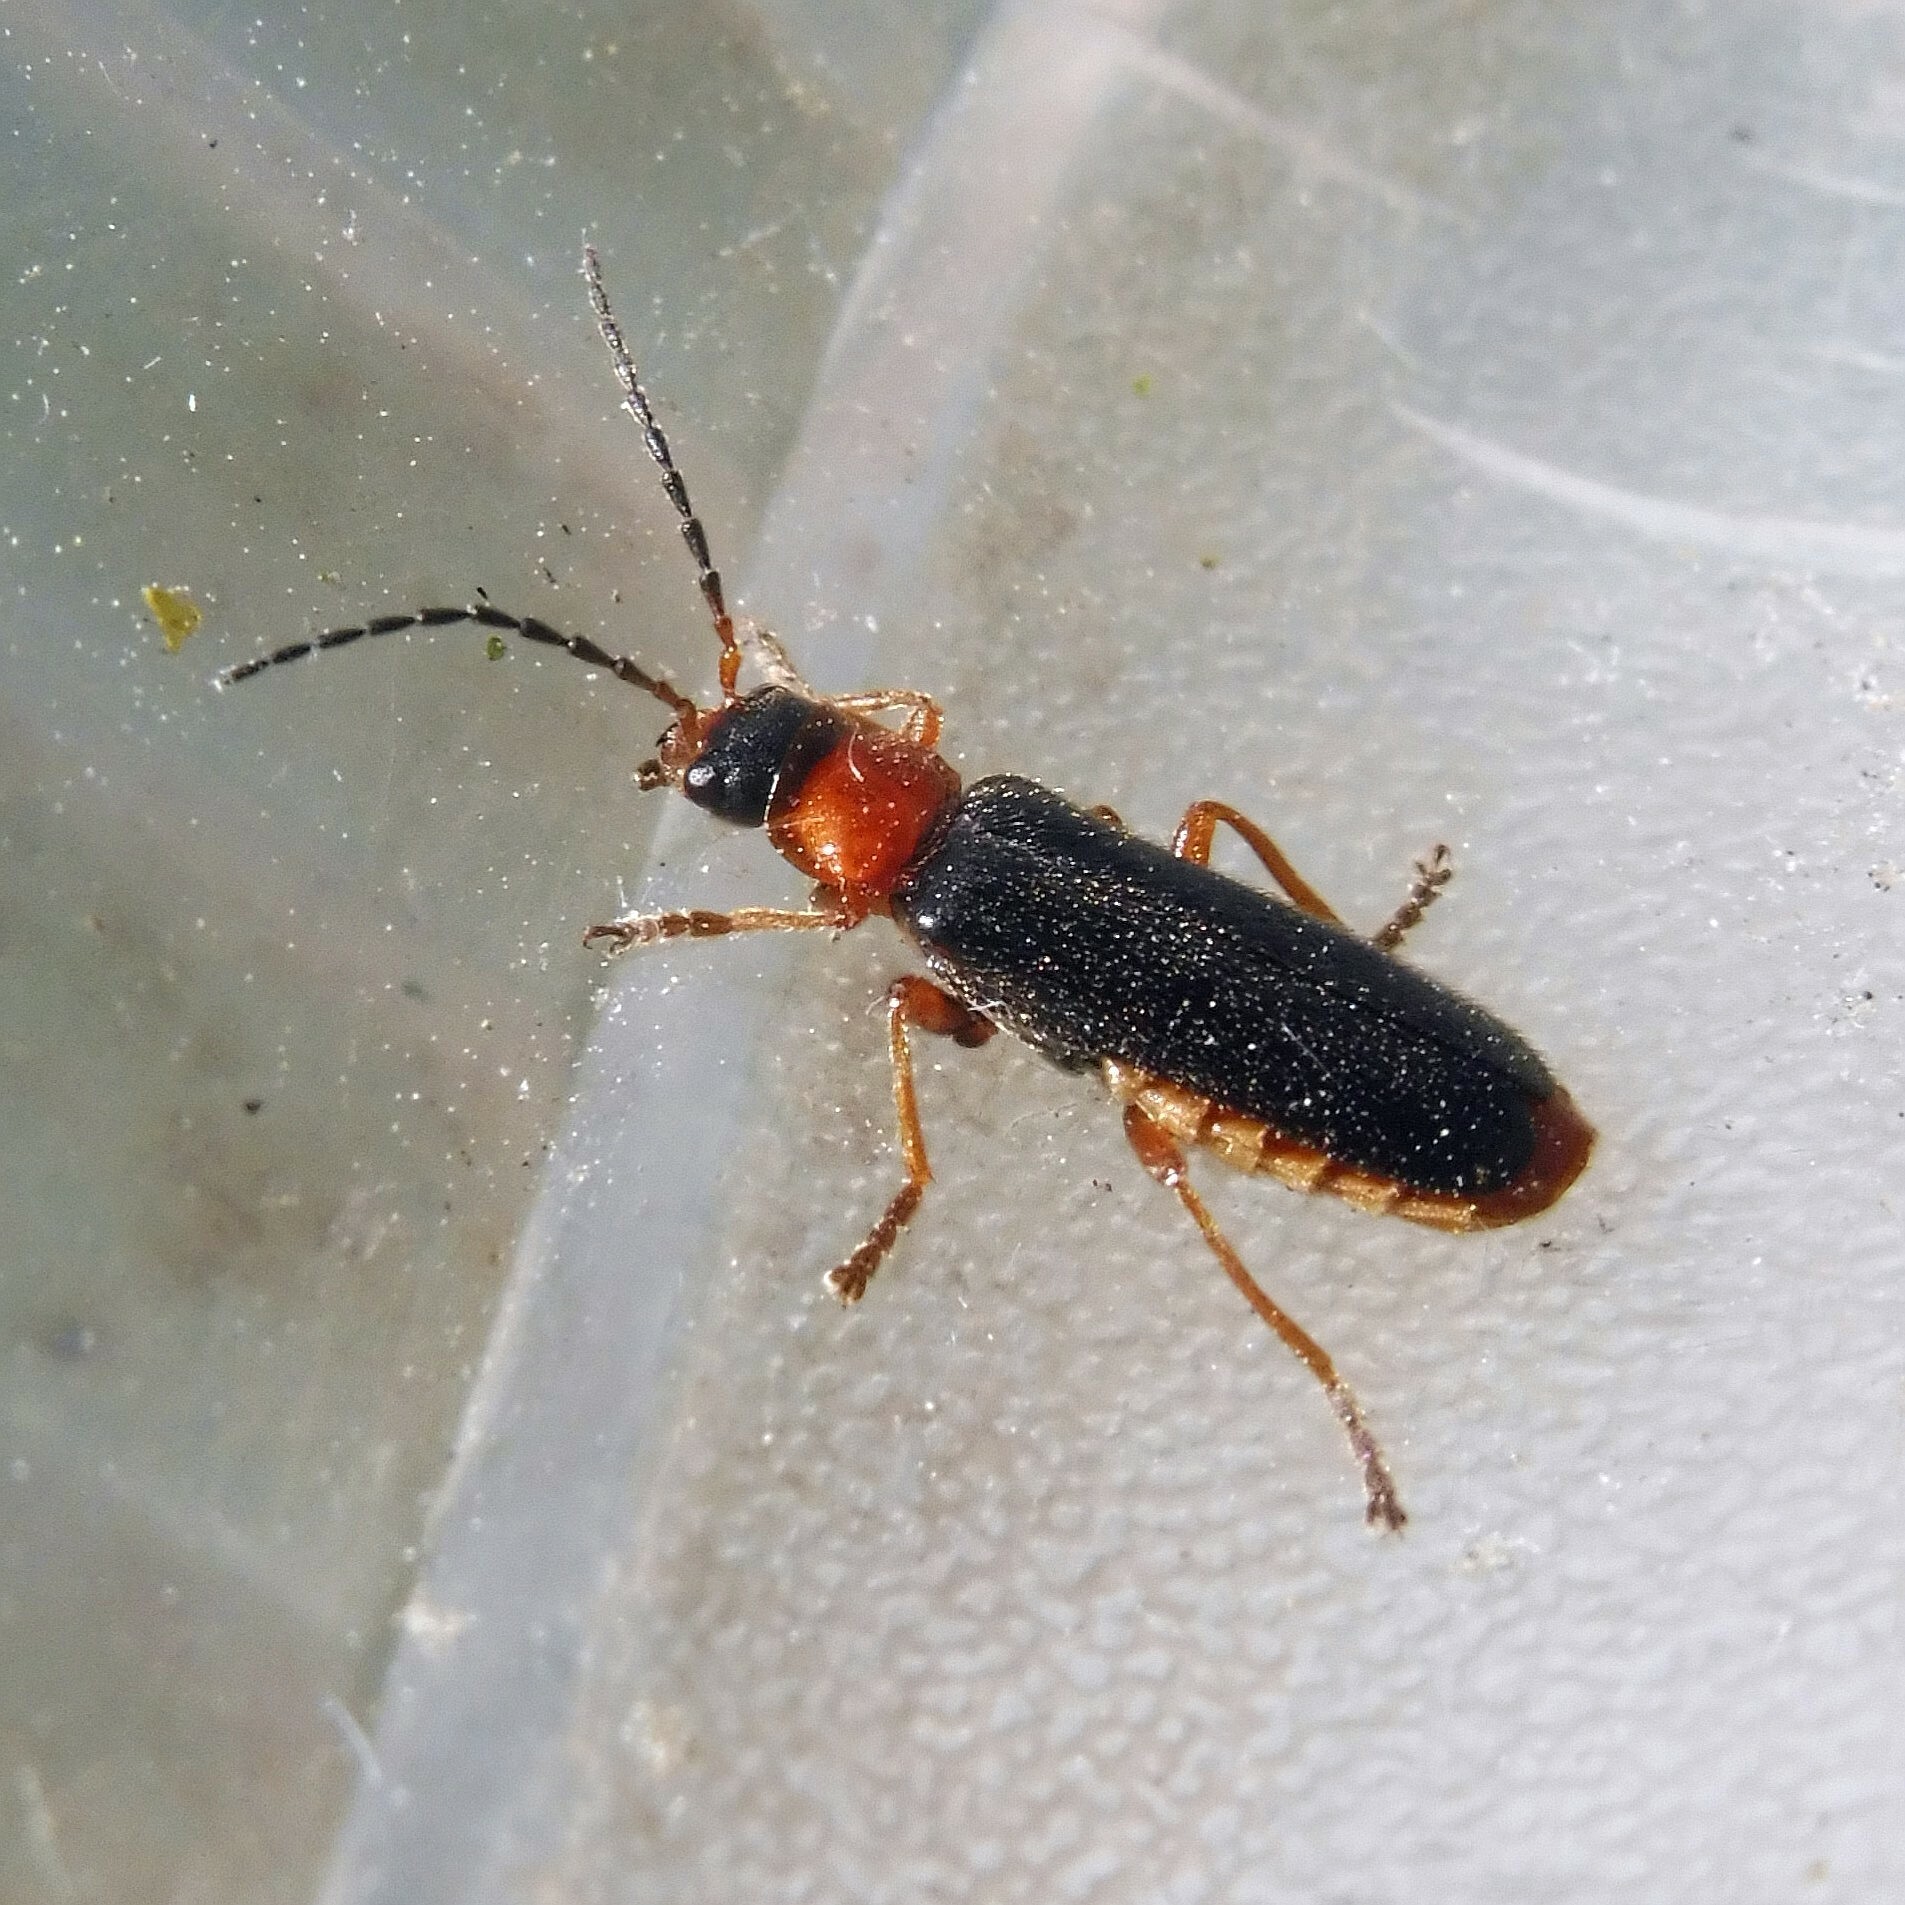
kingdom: Animalia
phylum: Arthropoda
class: Insecta
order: Coleoptera
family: Cantharidae
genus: Cantharis
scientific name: Cantharis flavilabris
